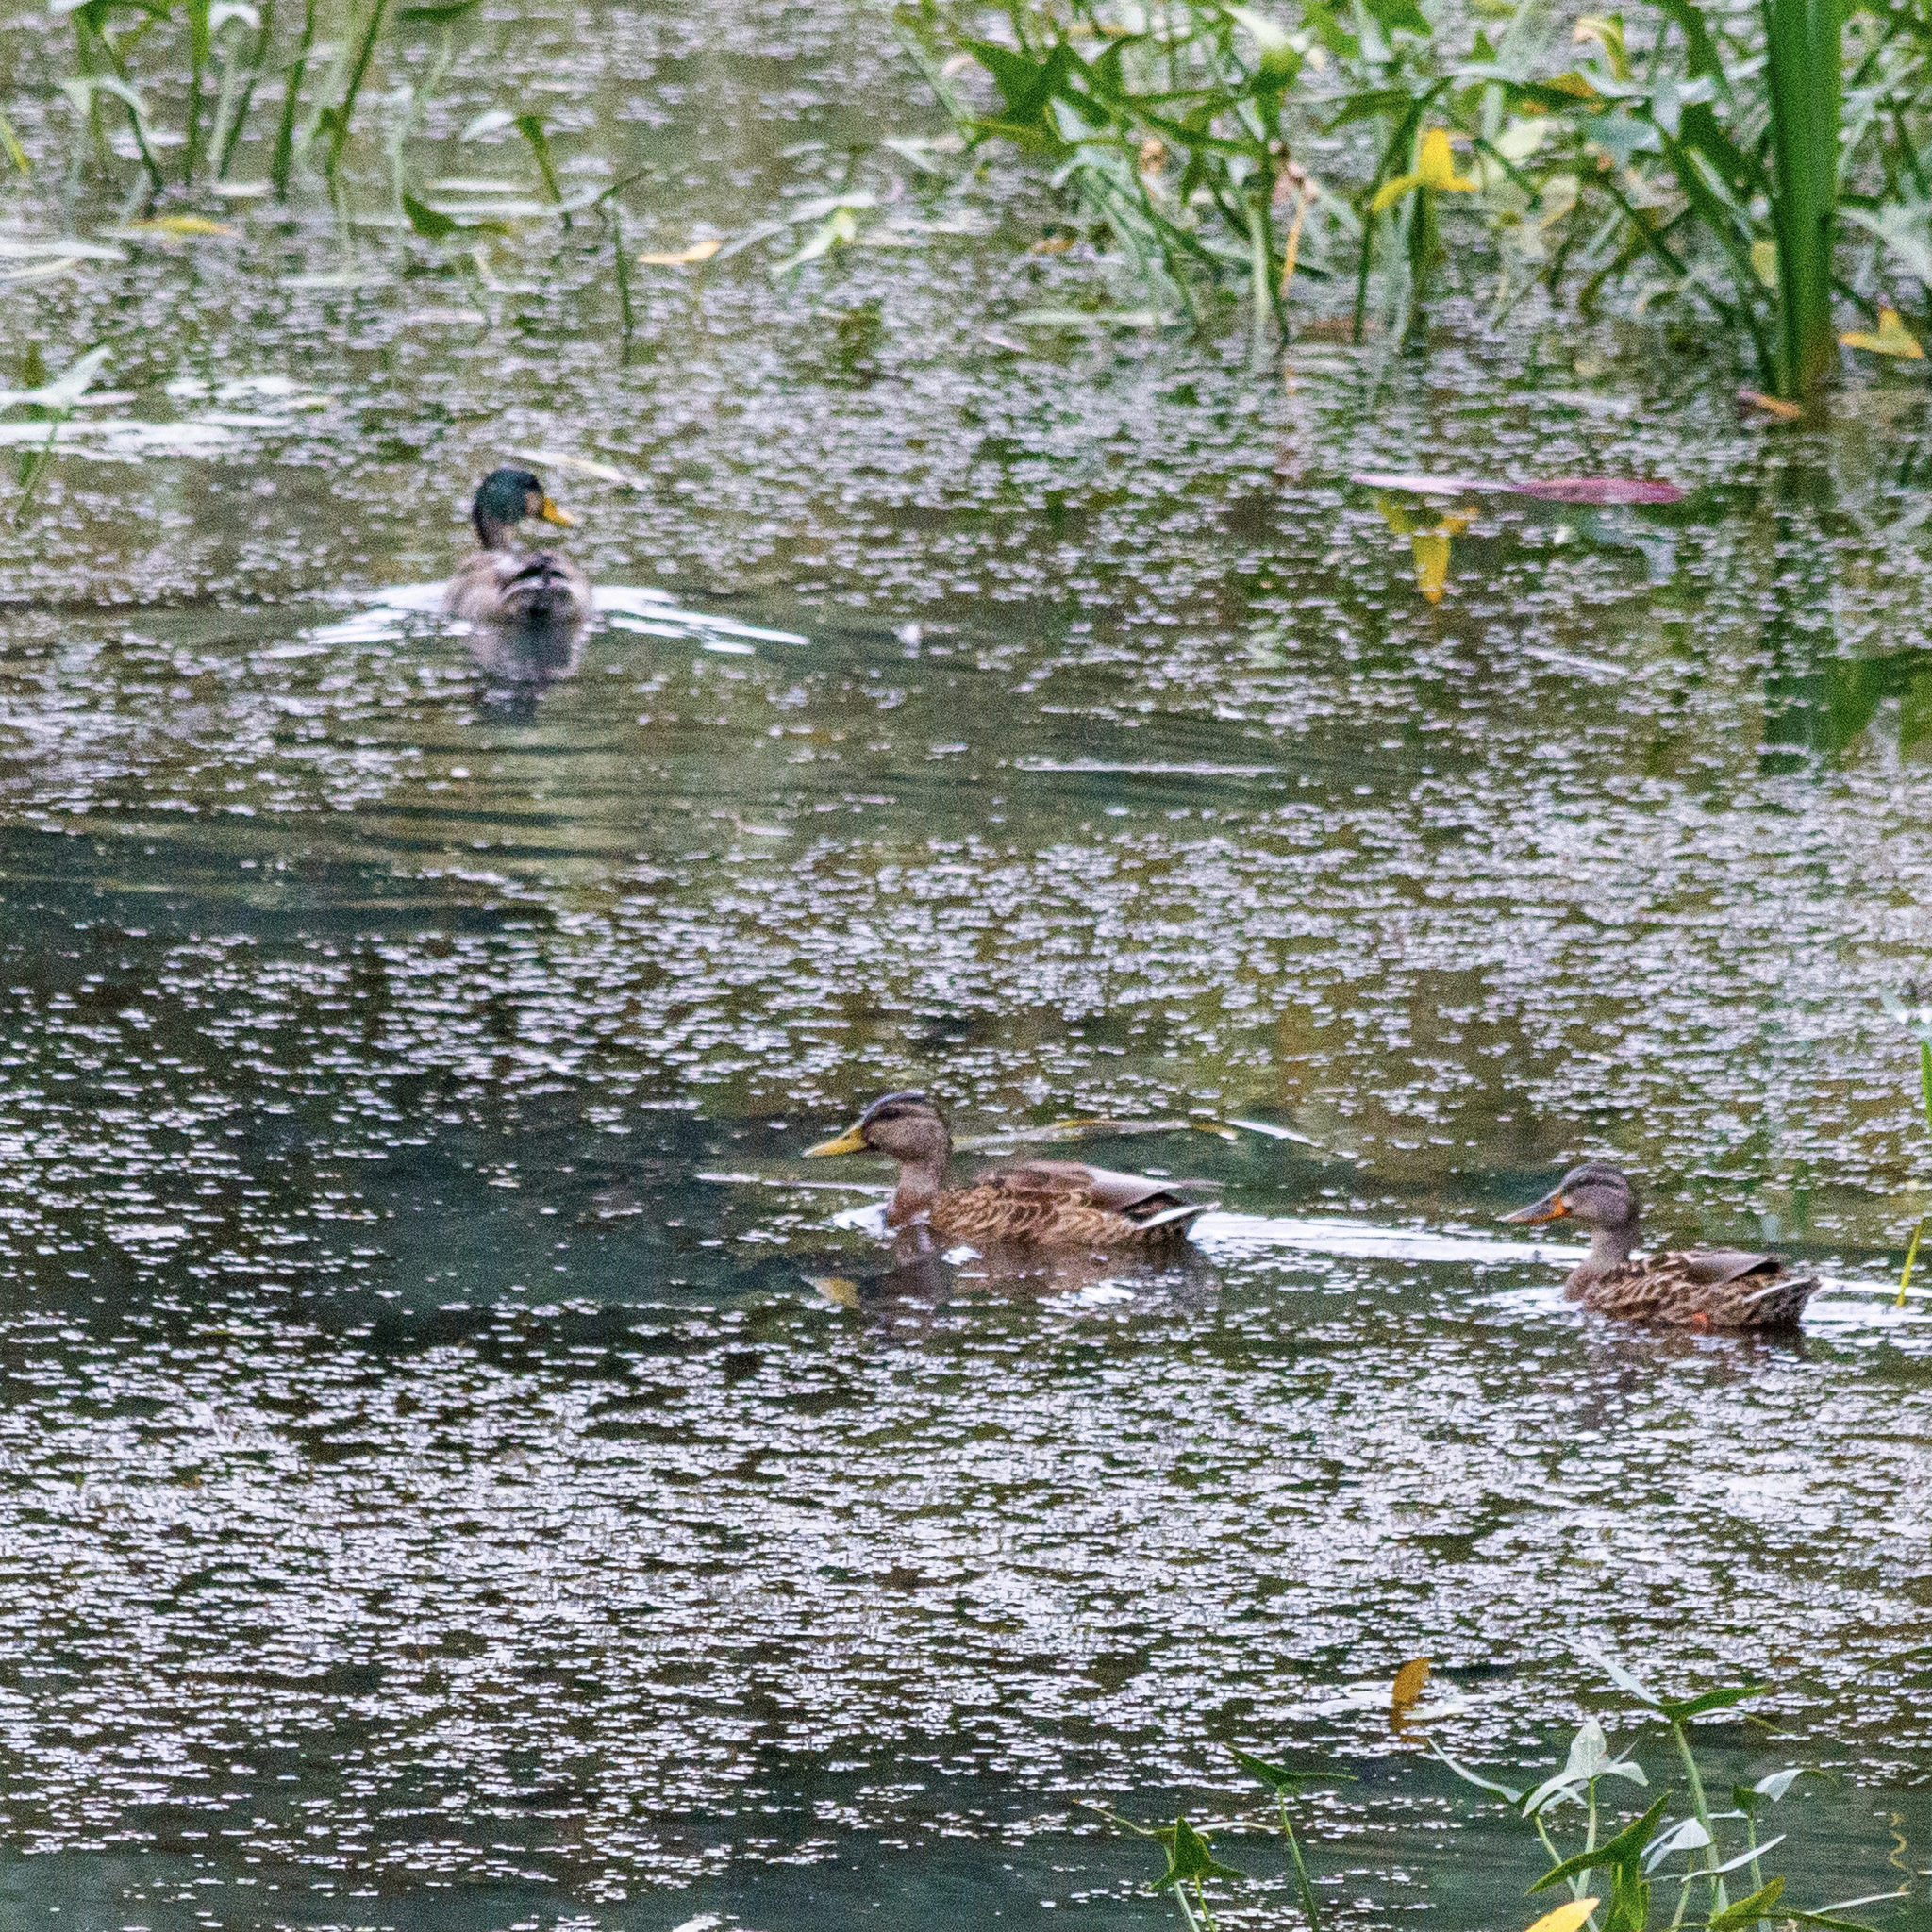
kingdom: Animalia
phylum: Chordata
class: Aves
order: Anseriformes
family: Anatidae
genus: Anas
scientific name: Anas platyrhynchos
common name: Mallard
